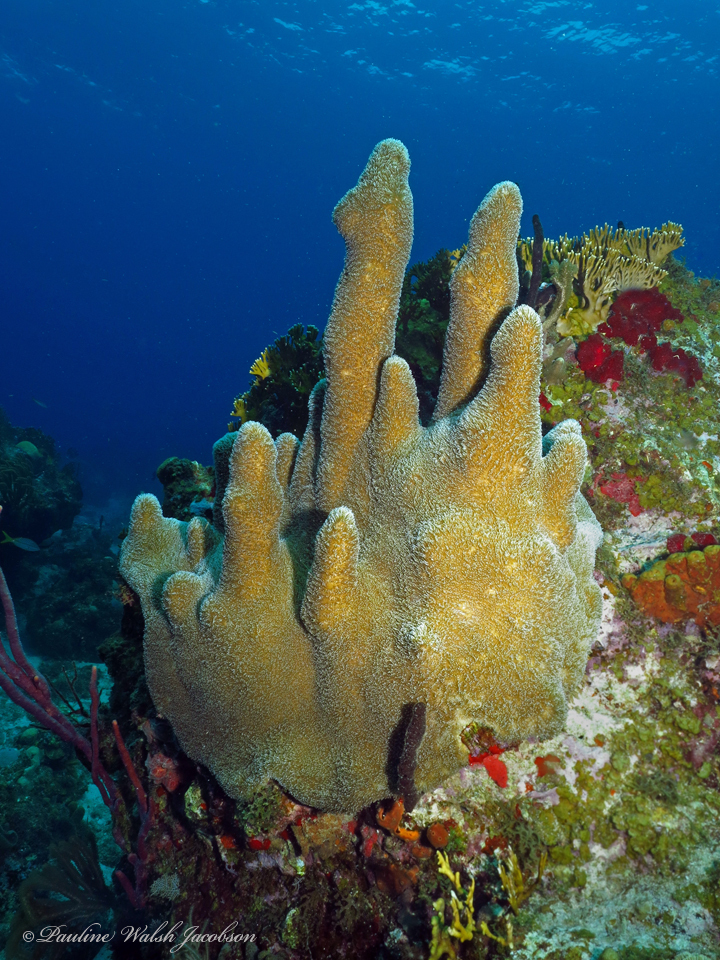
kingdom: Animalia
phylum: Cnidaria
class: Anthozoa
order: Scleractinia
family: Meandrinidae
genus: Dendrogyra
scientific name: Dendrogyra cylindrus
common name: Pillar coral
